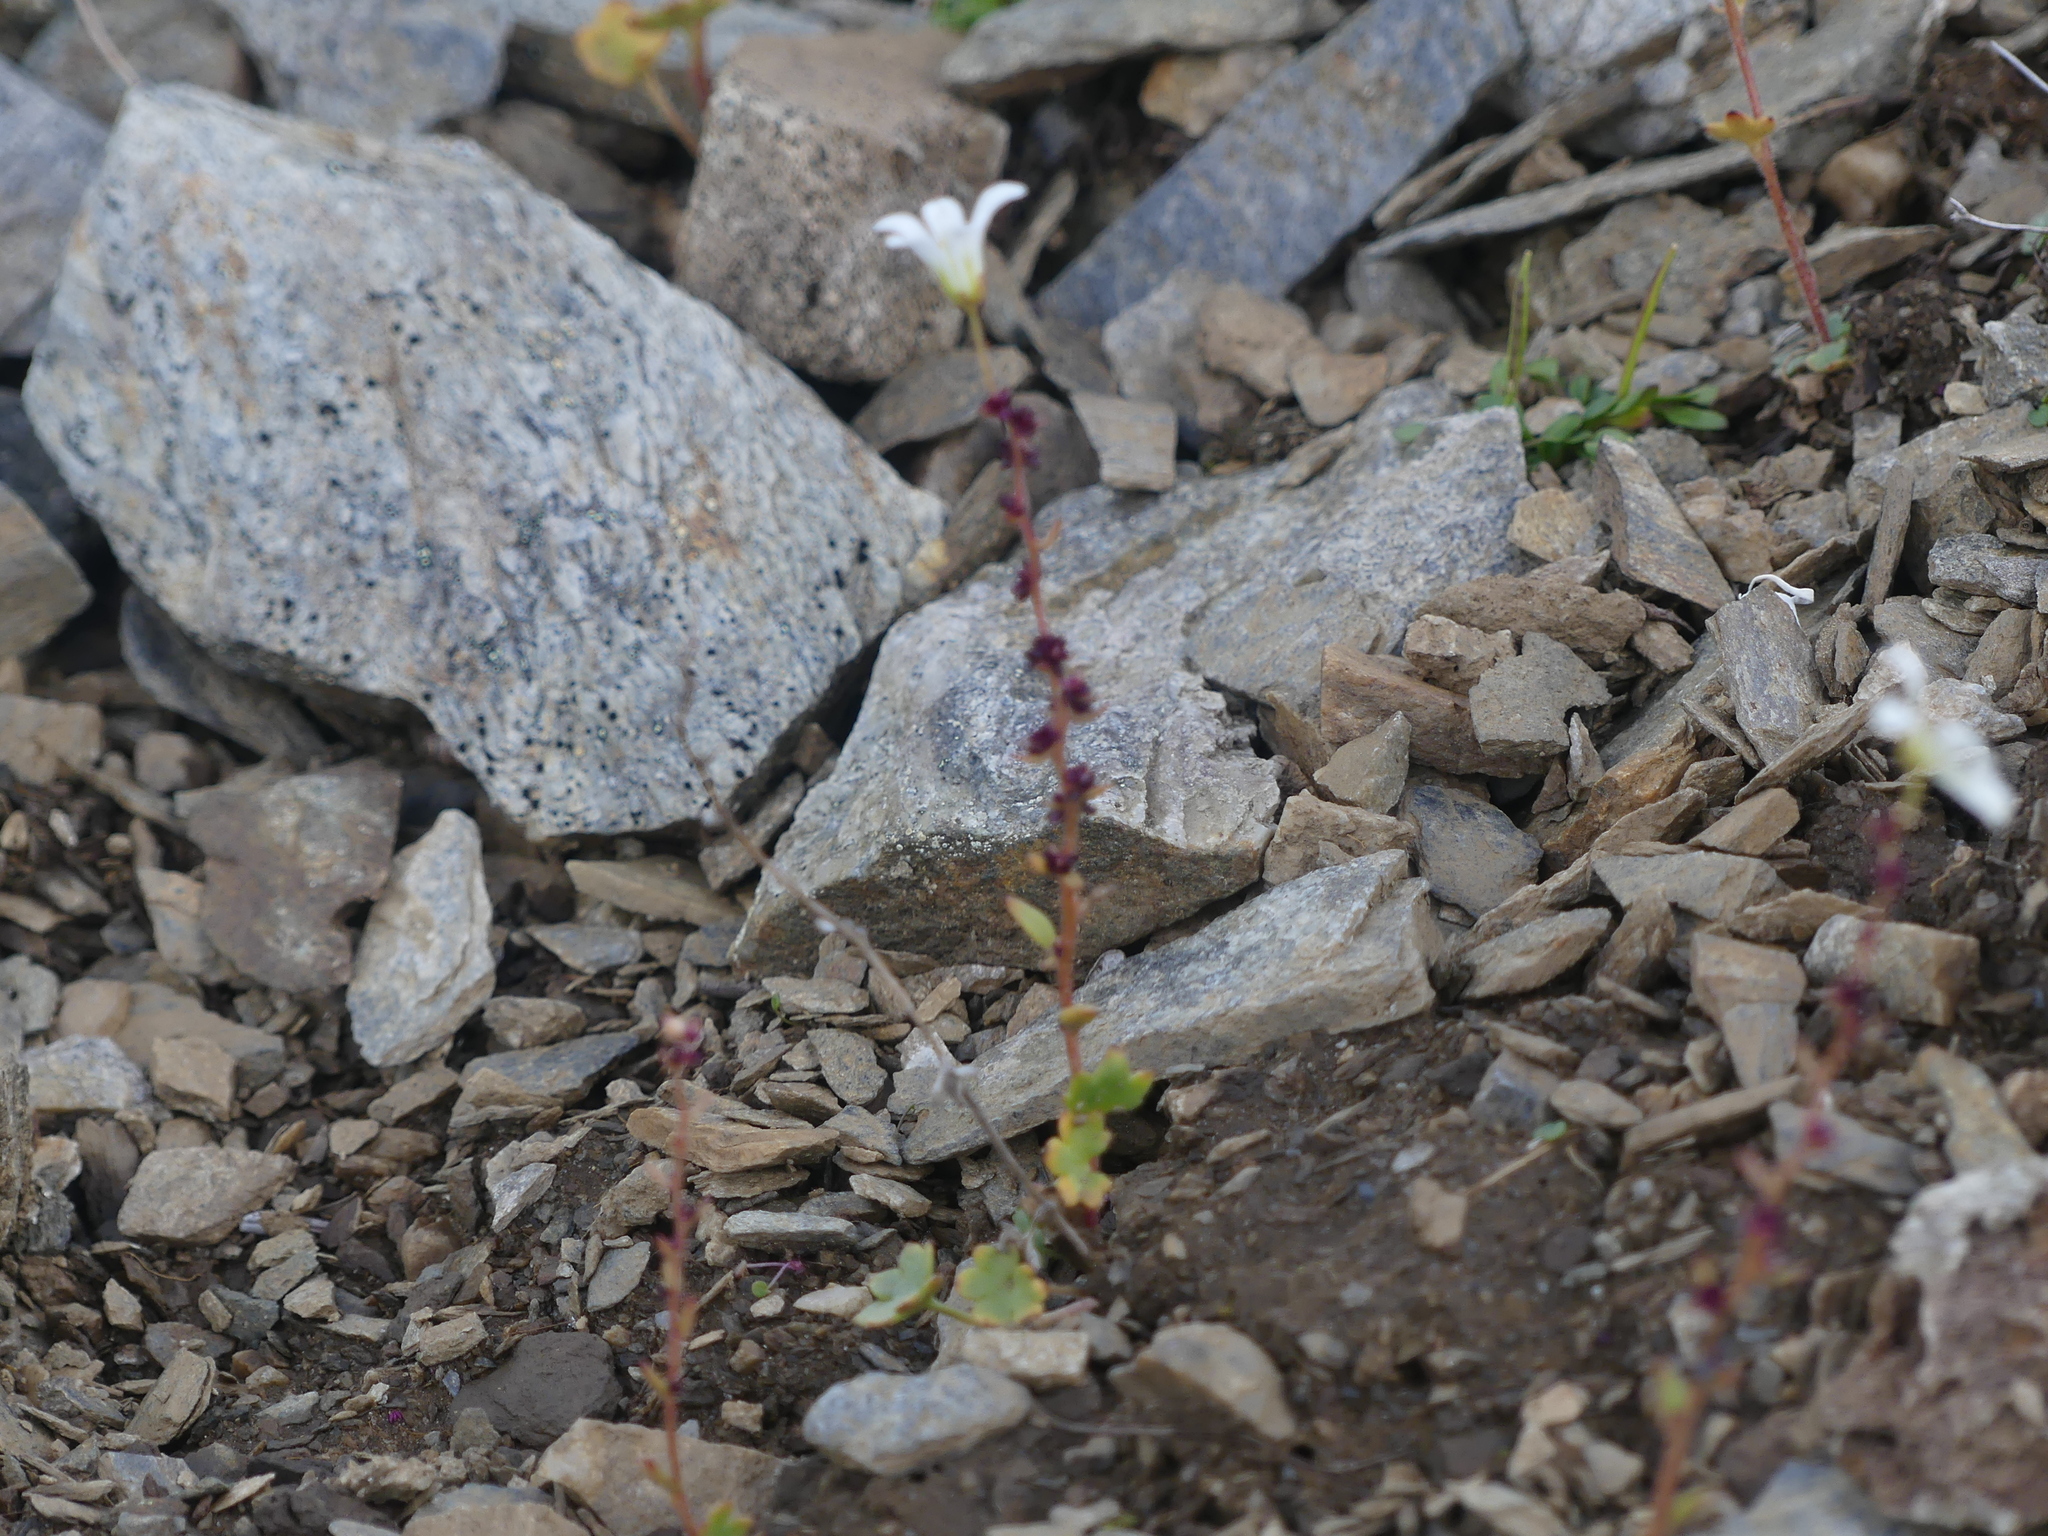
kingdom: Plantae
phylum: Tracheophyta
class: Magnoliopsida
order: Saxifragales
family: Saxifragaceae
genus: Saxifraga
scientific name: Saxifraga cernua
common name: Drooping saxifrage
